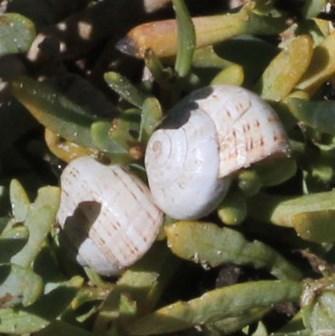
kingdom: Animalia
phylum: Mollusca
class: Gastropoda
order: Stylommatophora
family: Helicidae
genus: Theba
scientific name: Theba pisana
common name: White snail
